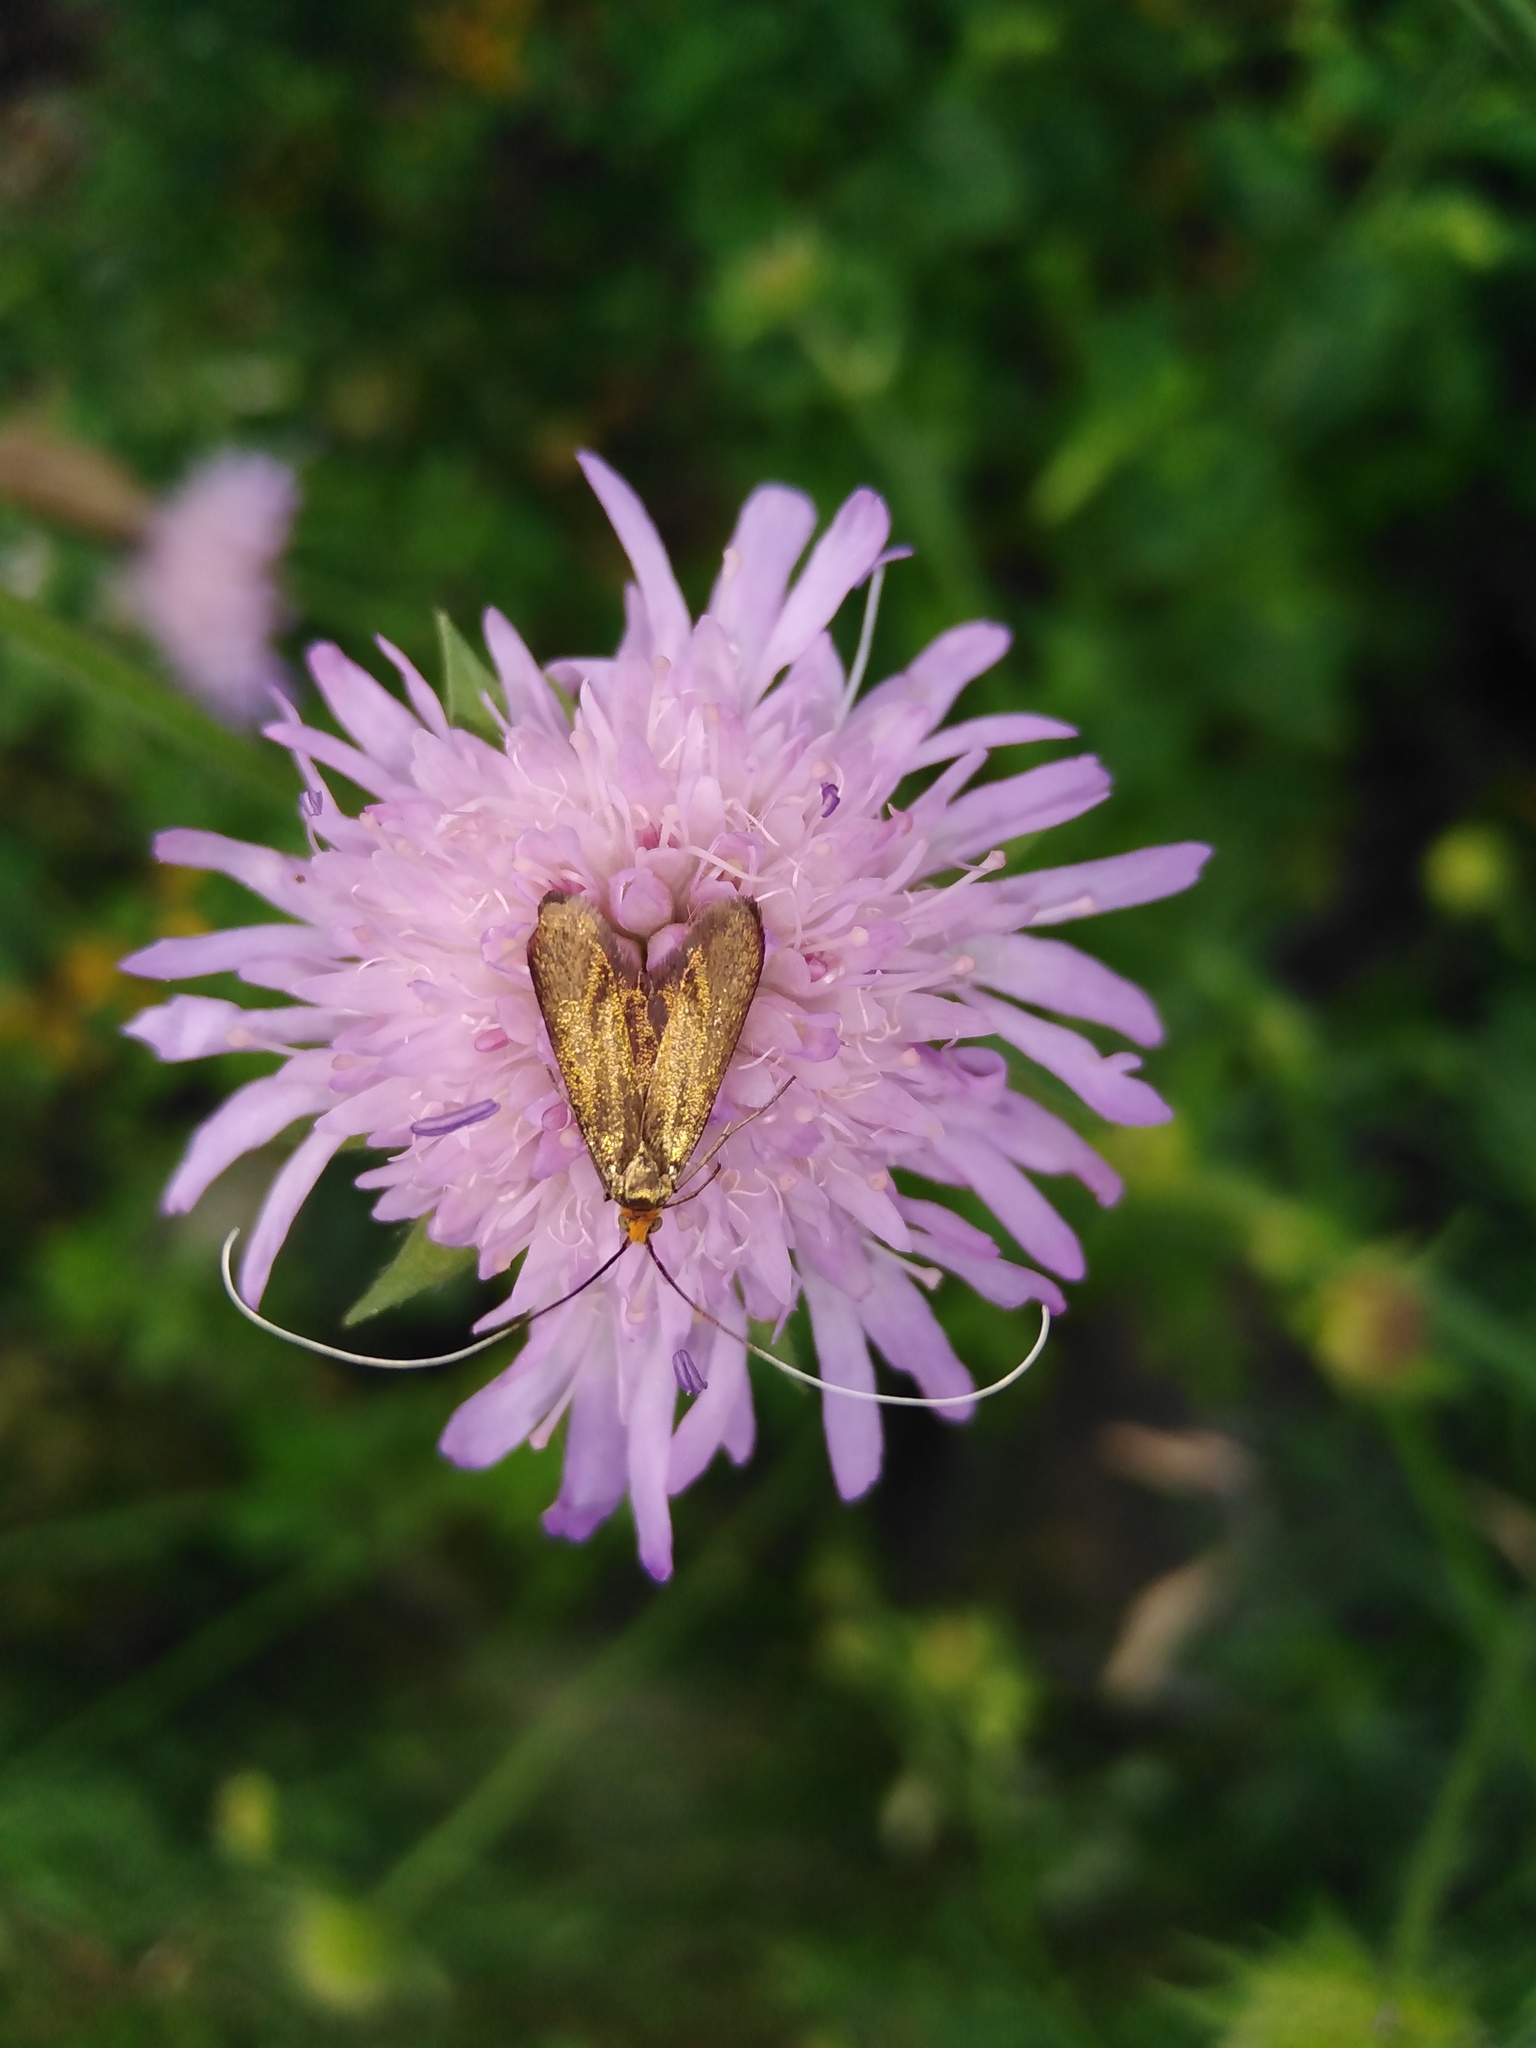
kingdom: Animalia
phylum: Arthropoda
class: Insecta
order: Lepidoptera
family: Adelidae
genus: Nemophora
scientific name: Nemophora metallica
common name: Brassy long-horn
